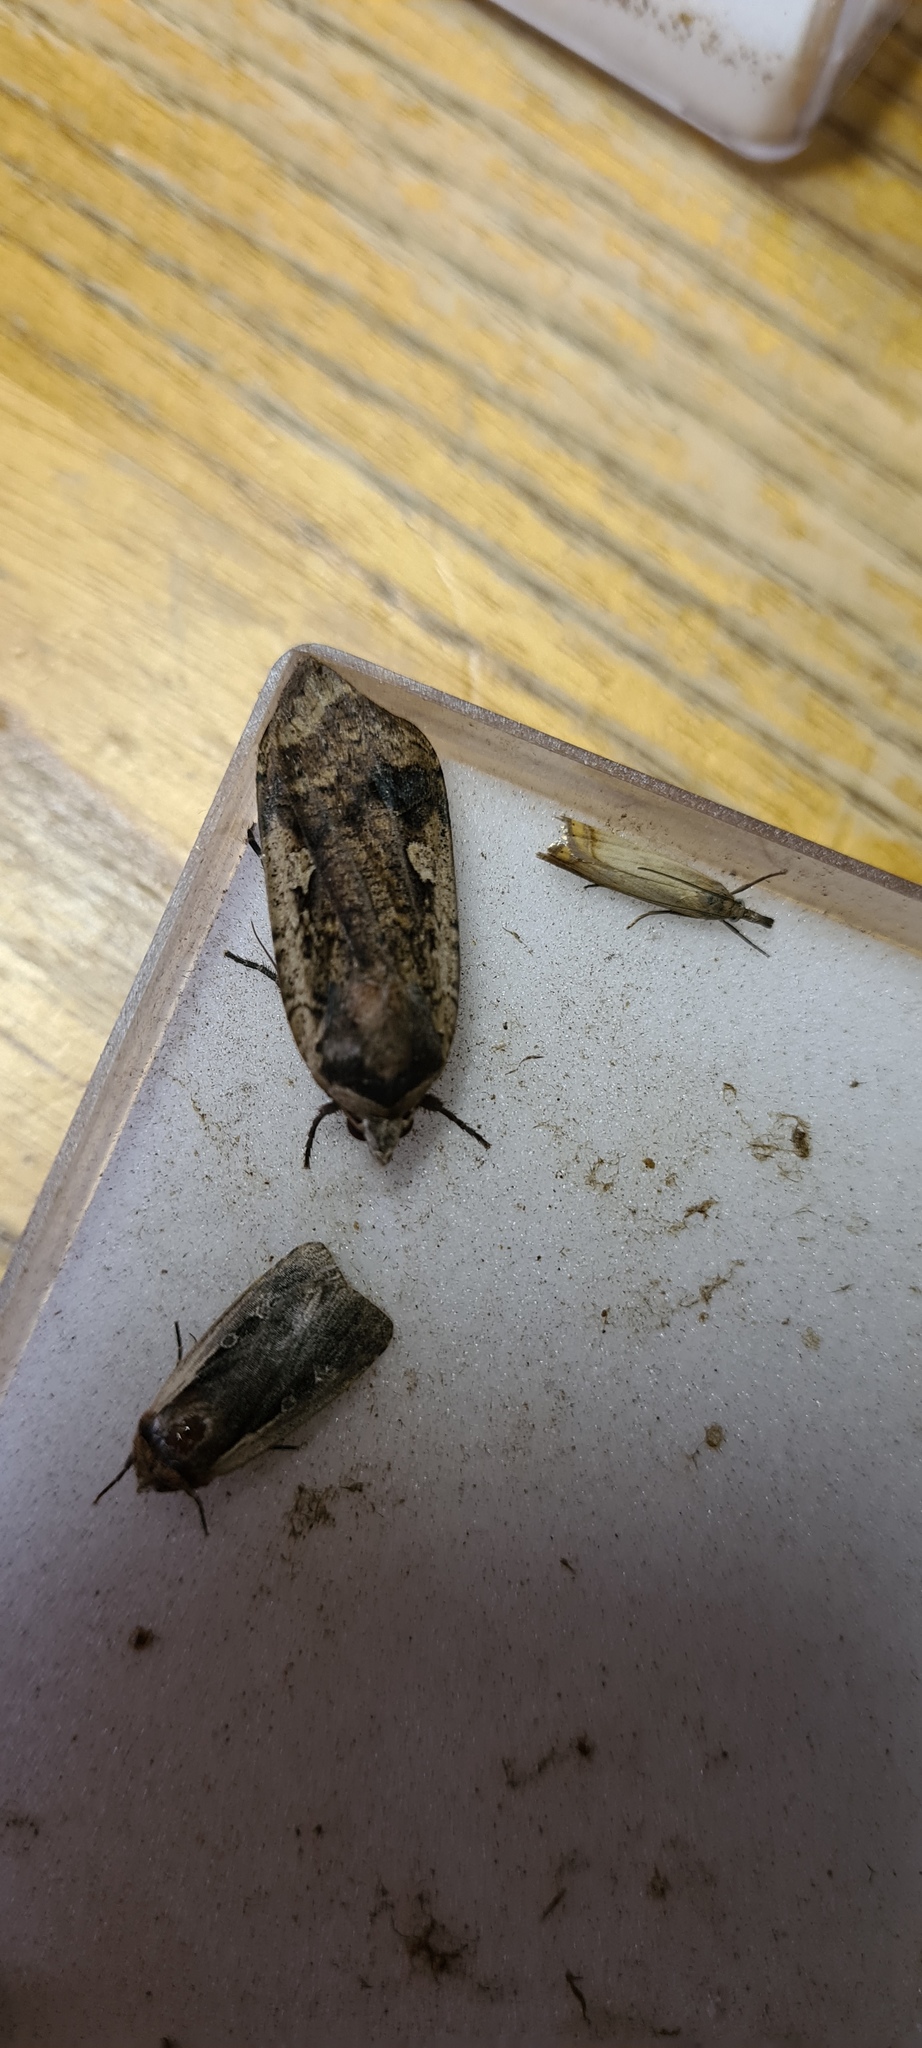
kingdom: Animalia
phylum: Arthropoda
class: Insecta
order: Lepidoptera
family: Noctuidae
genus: Noctua
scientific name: Noctua pronuba
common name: Large yellow underwing
